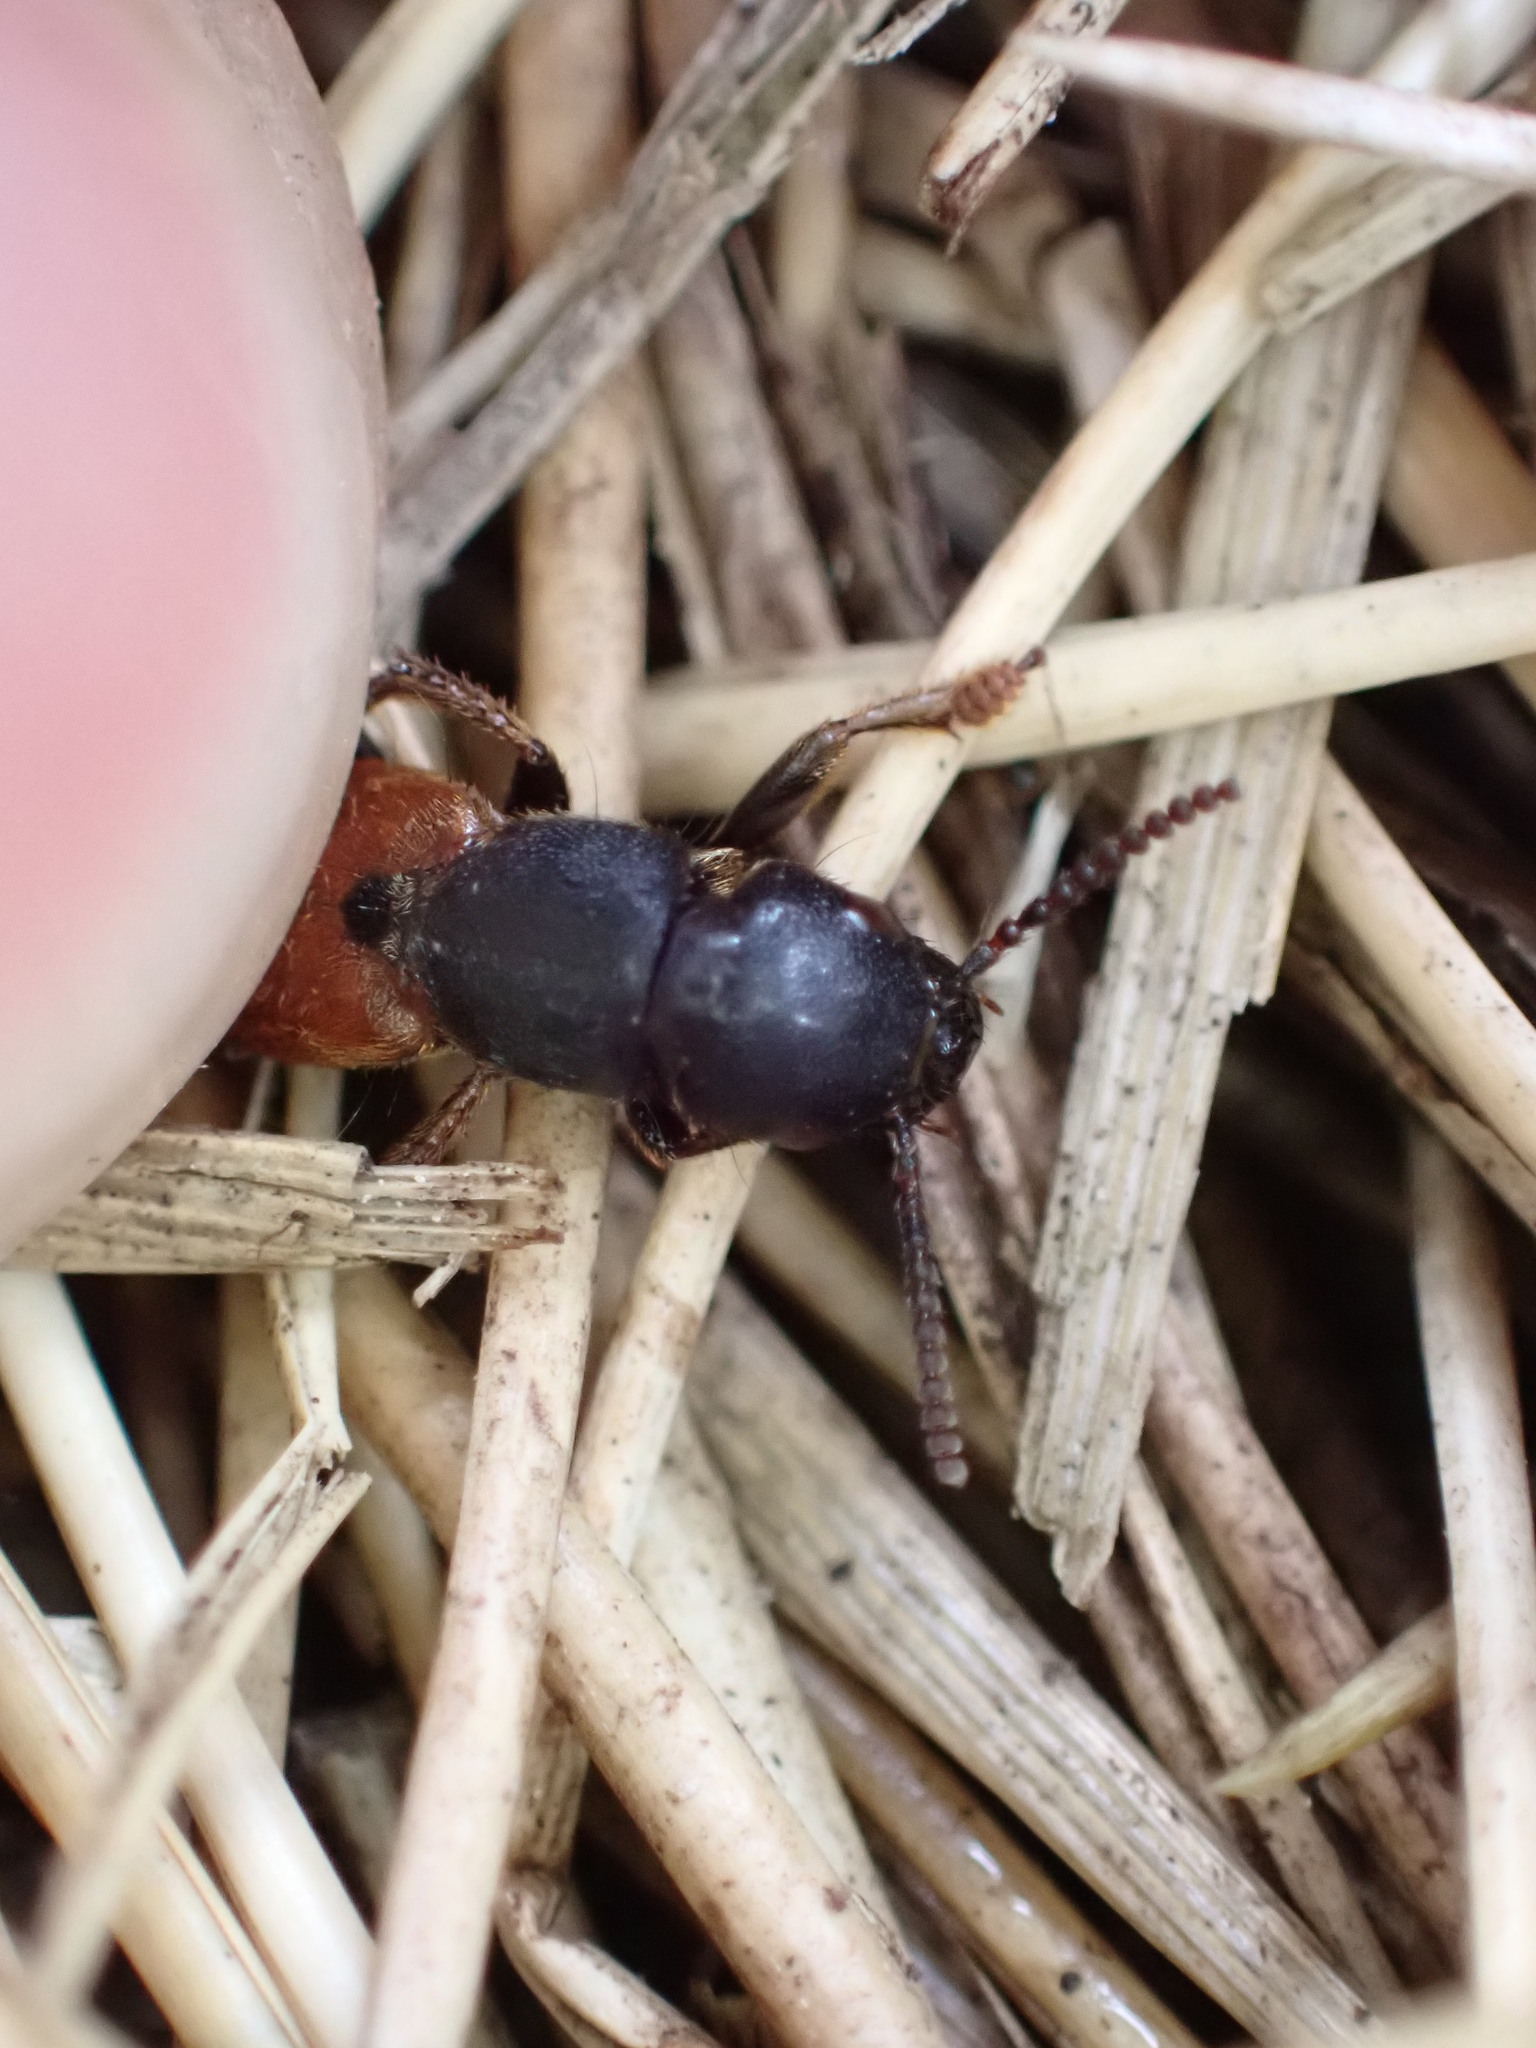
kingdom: Animalia
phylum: Arthropoda
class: Insecta
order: Coleoptera
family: Staphylinidae
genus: Platydracus
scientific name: Platydracus stercorarius
